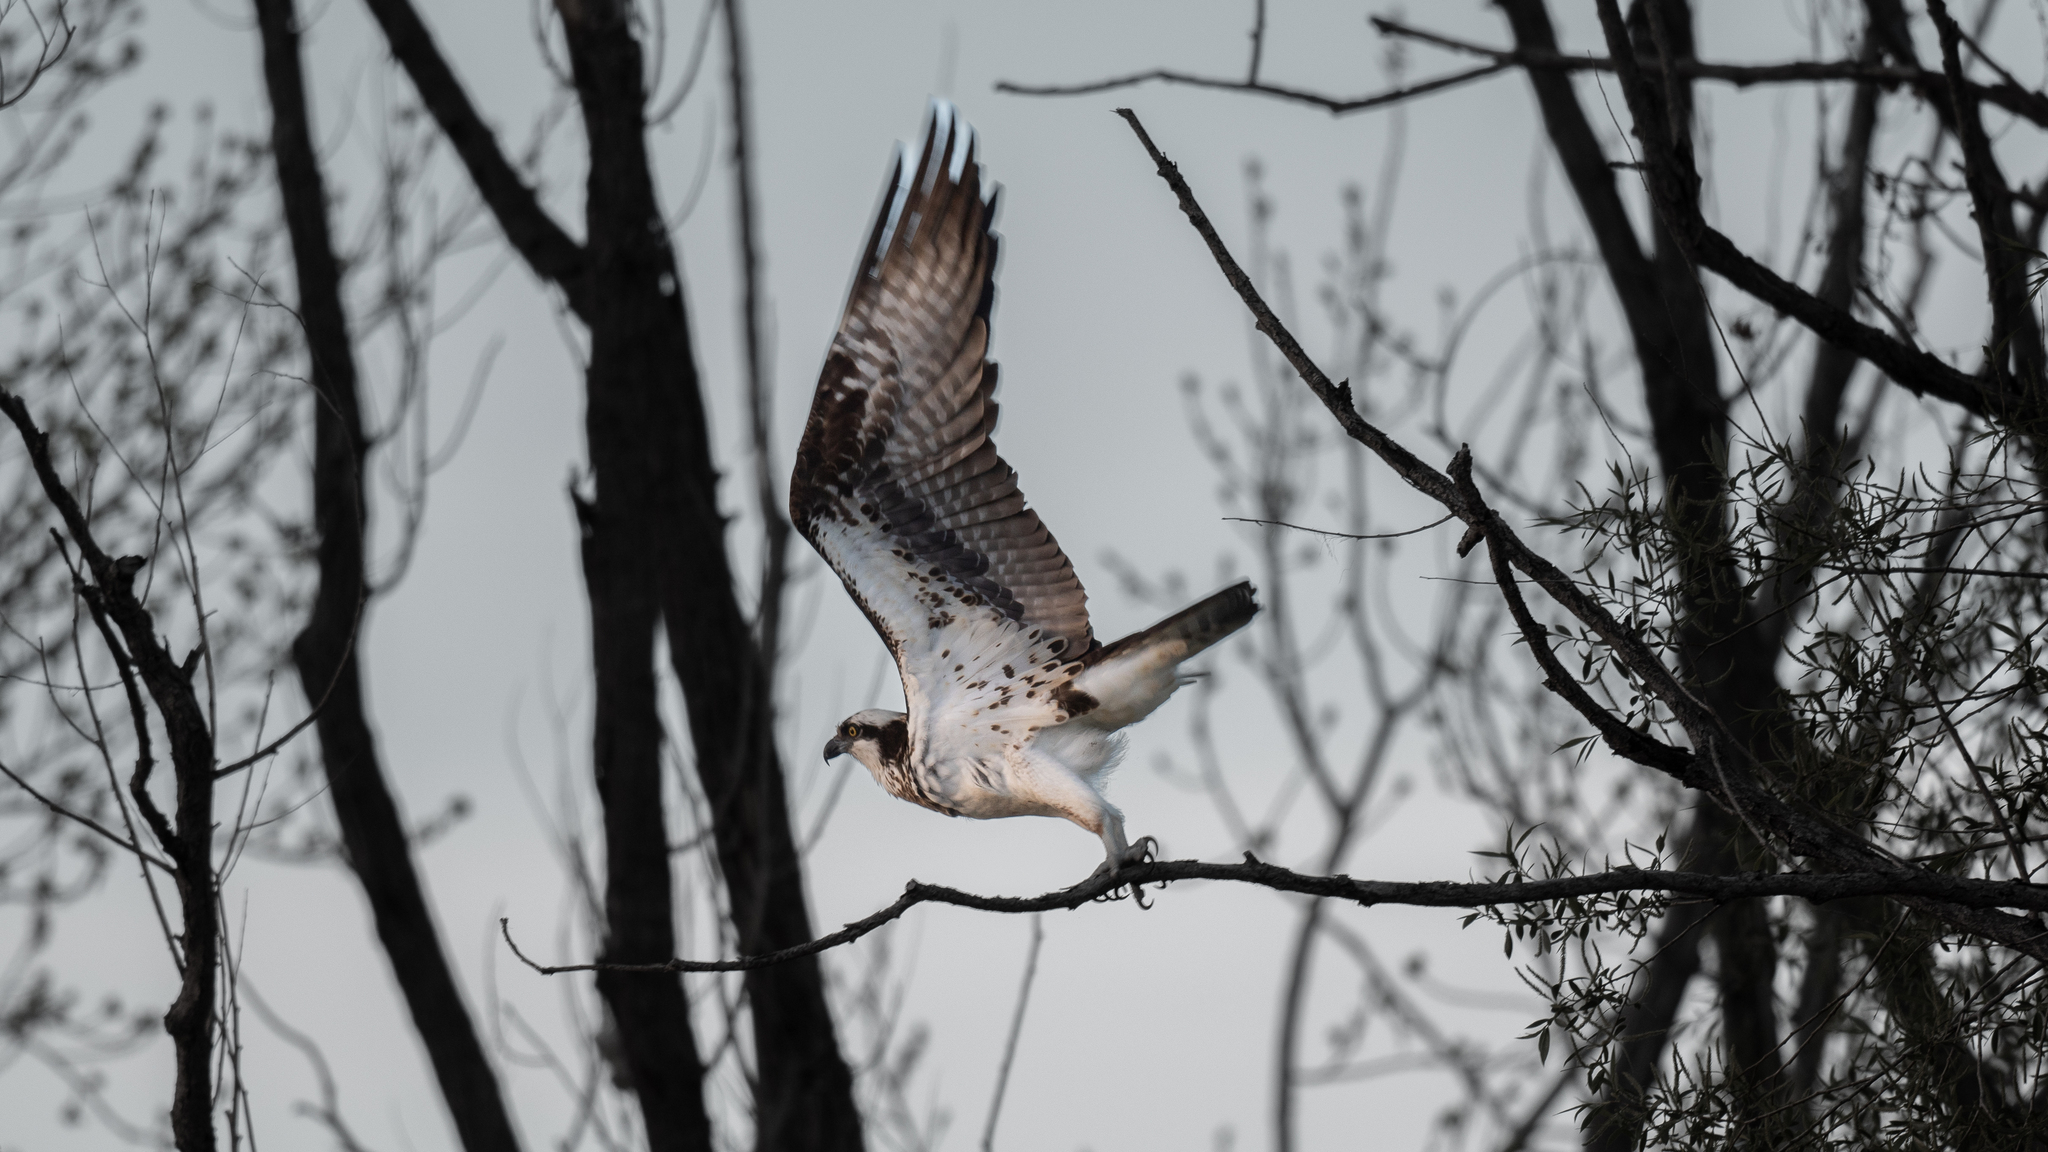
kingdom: Animalia
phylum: Chordata
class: Aves
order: Accipitriformes
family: Pandionidae
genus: Pandion
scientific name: Pandion haliaetus
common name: Osprey
